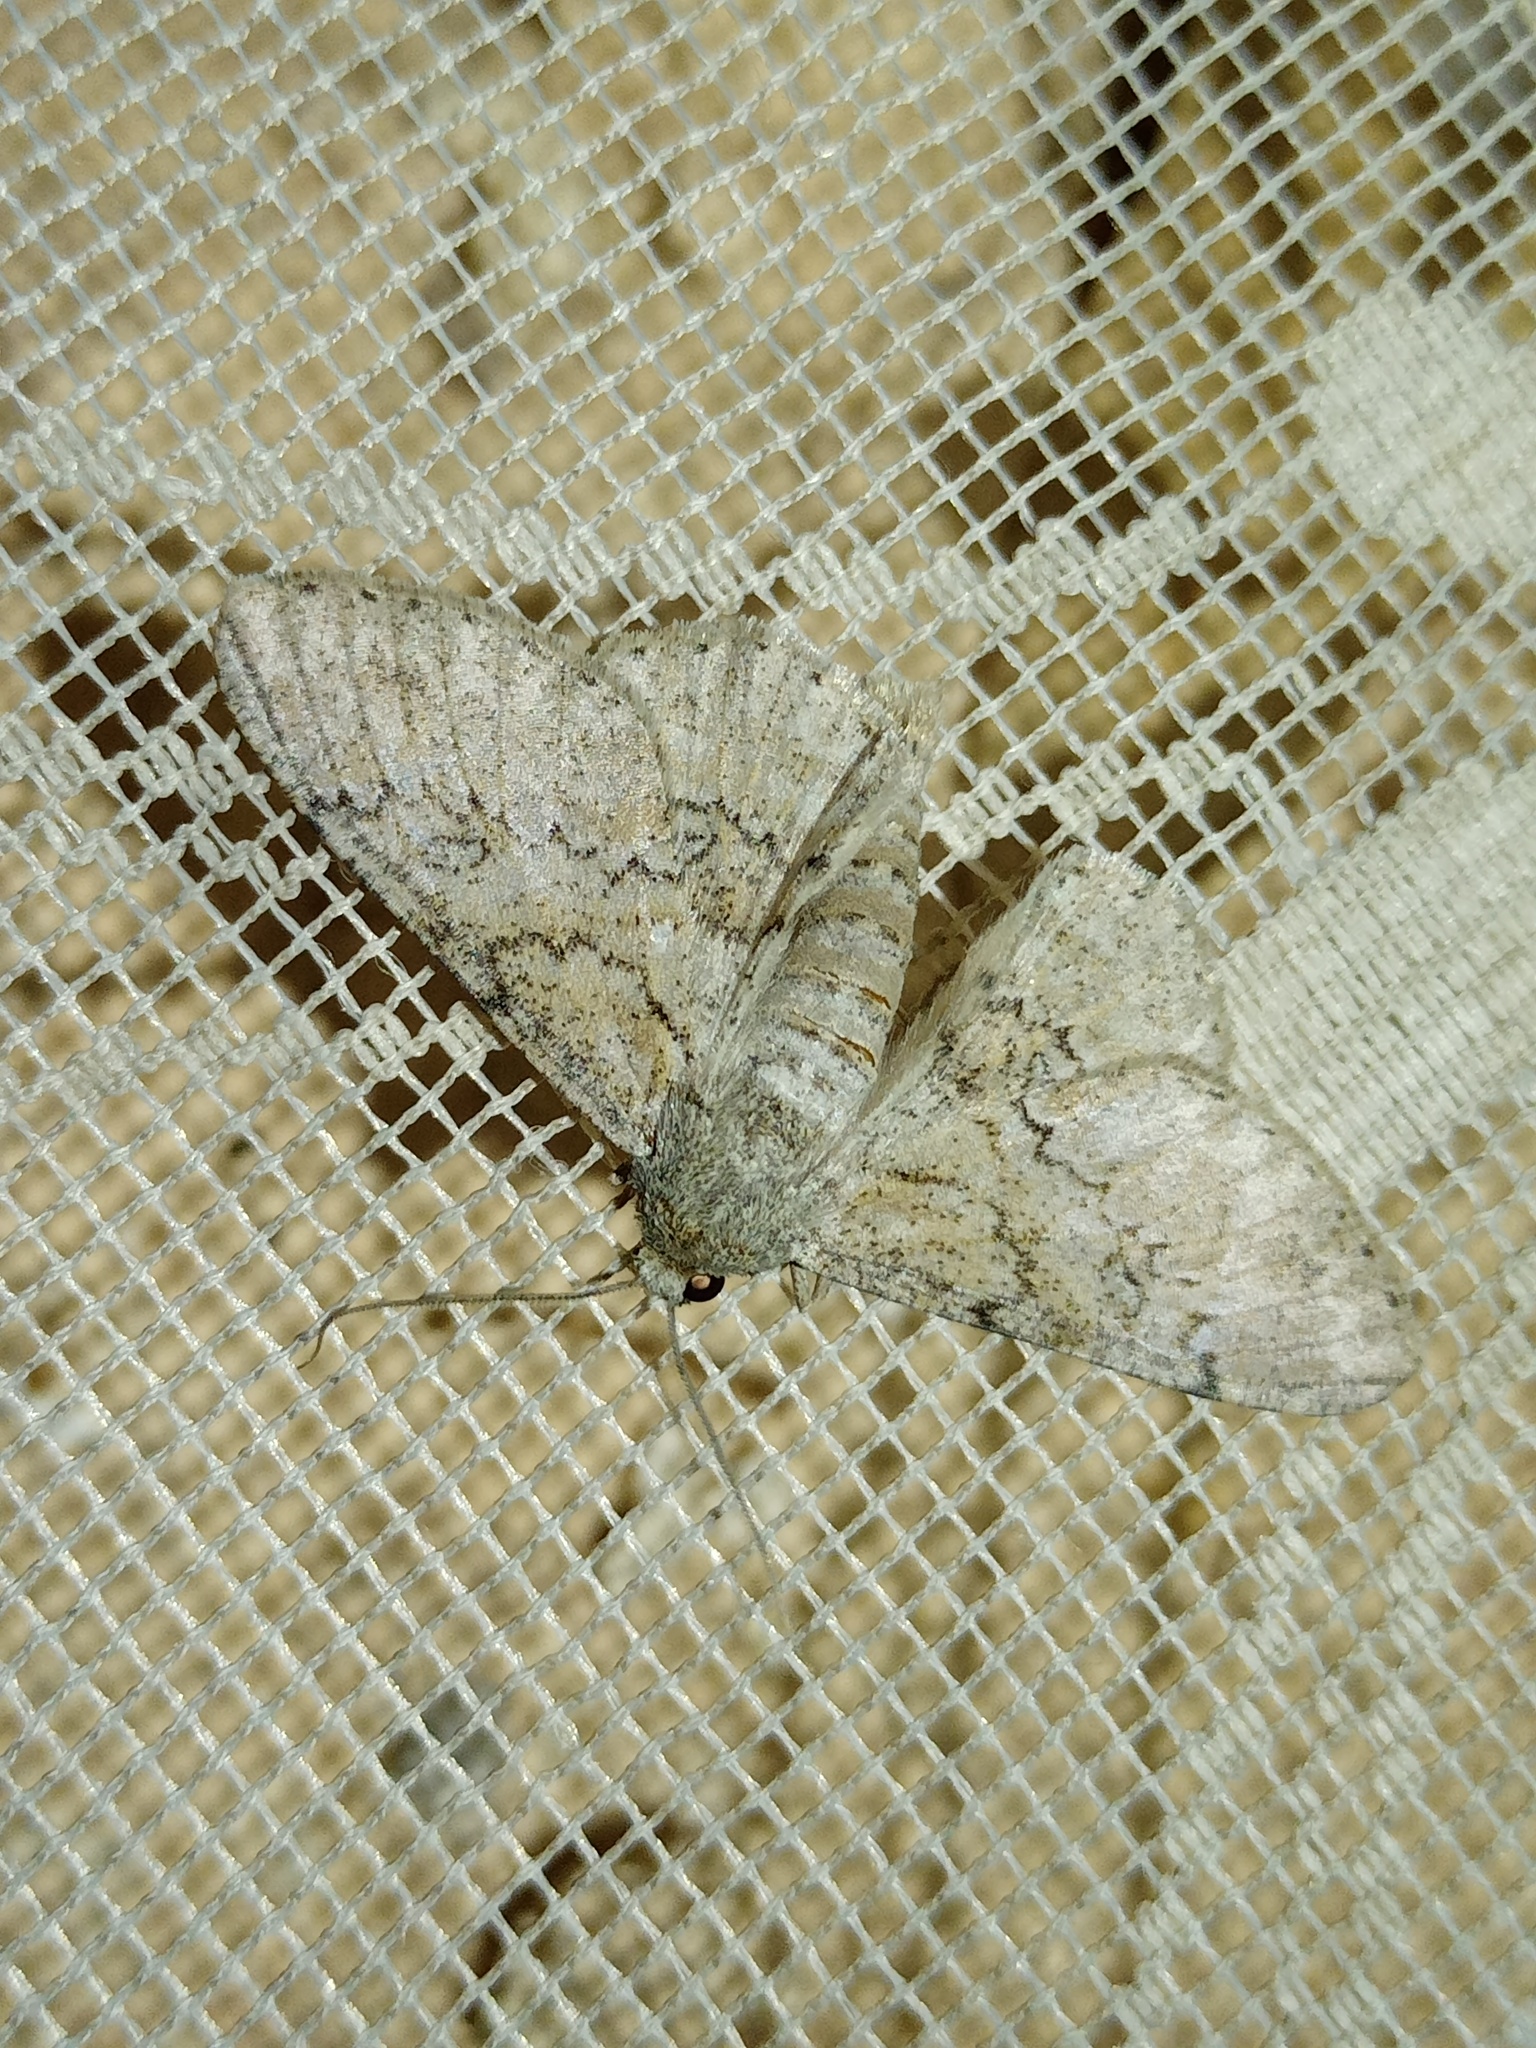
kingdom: Animalia
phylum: Arthropoda
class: Insecta
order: Lepidoptera
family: Geometridae
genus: Ascotis
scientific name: Ascotis selenaria
